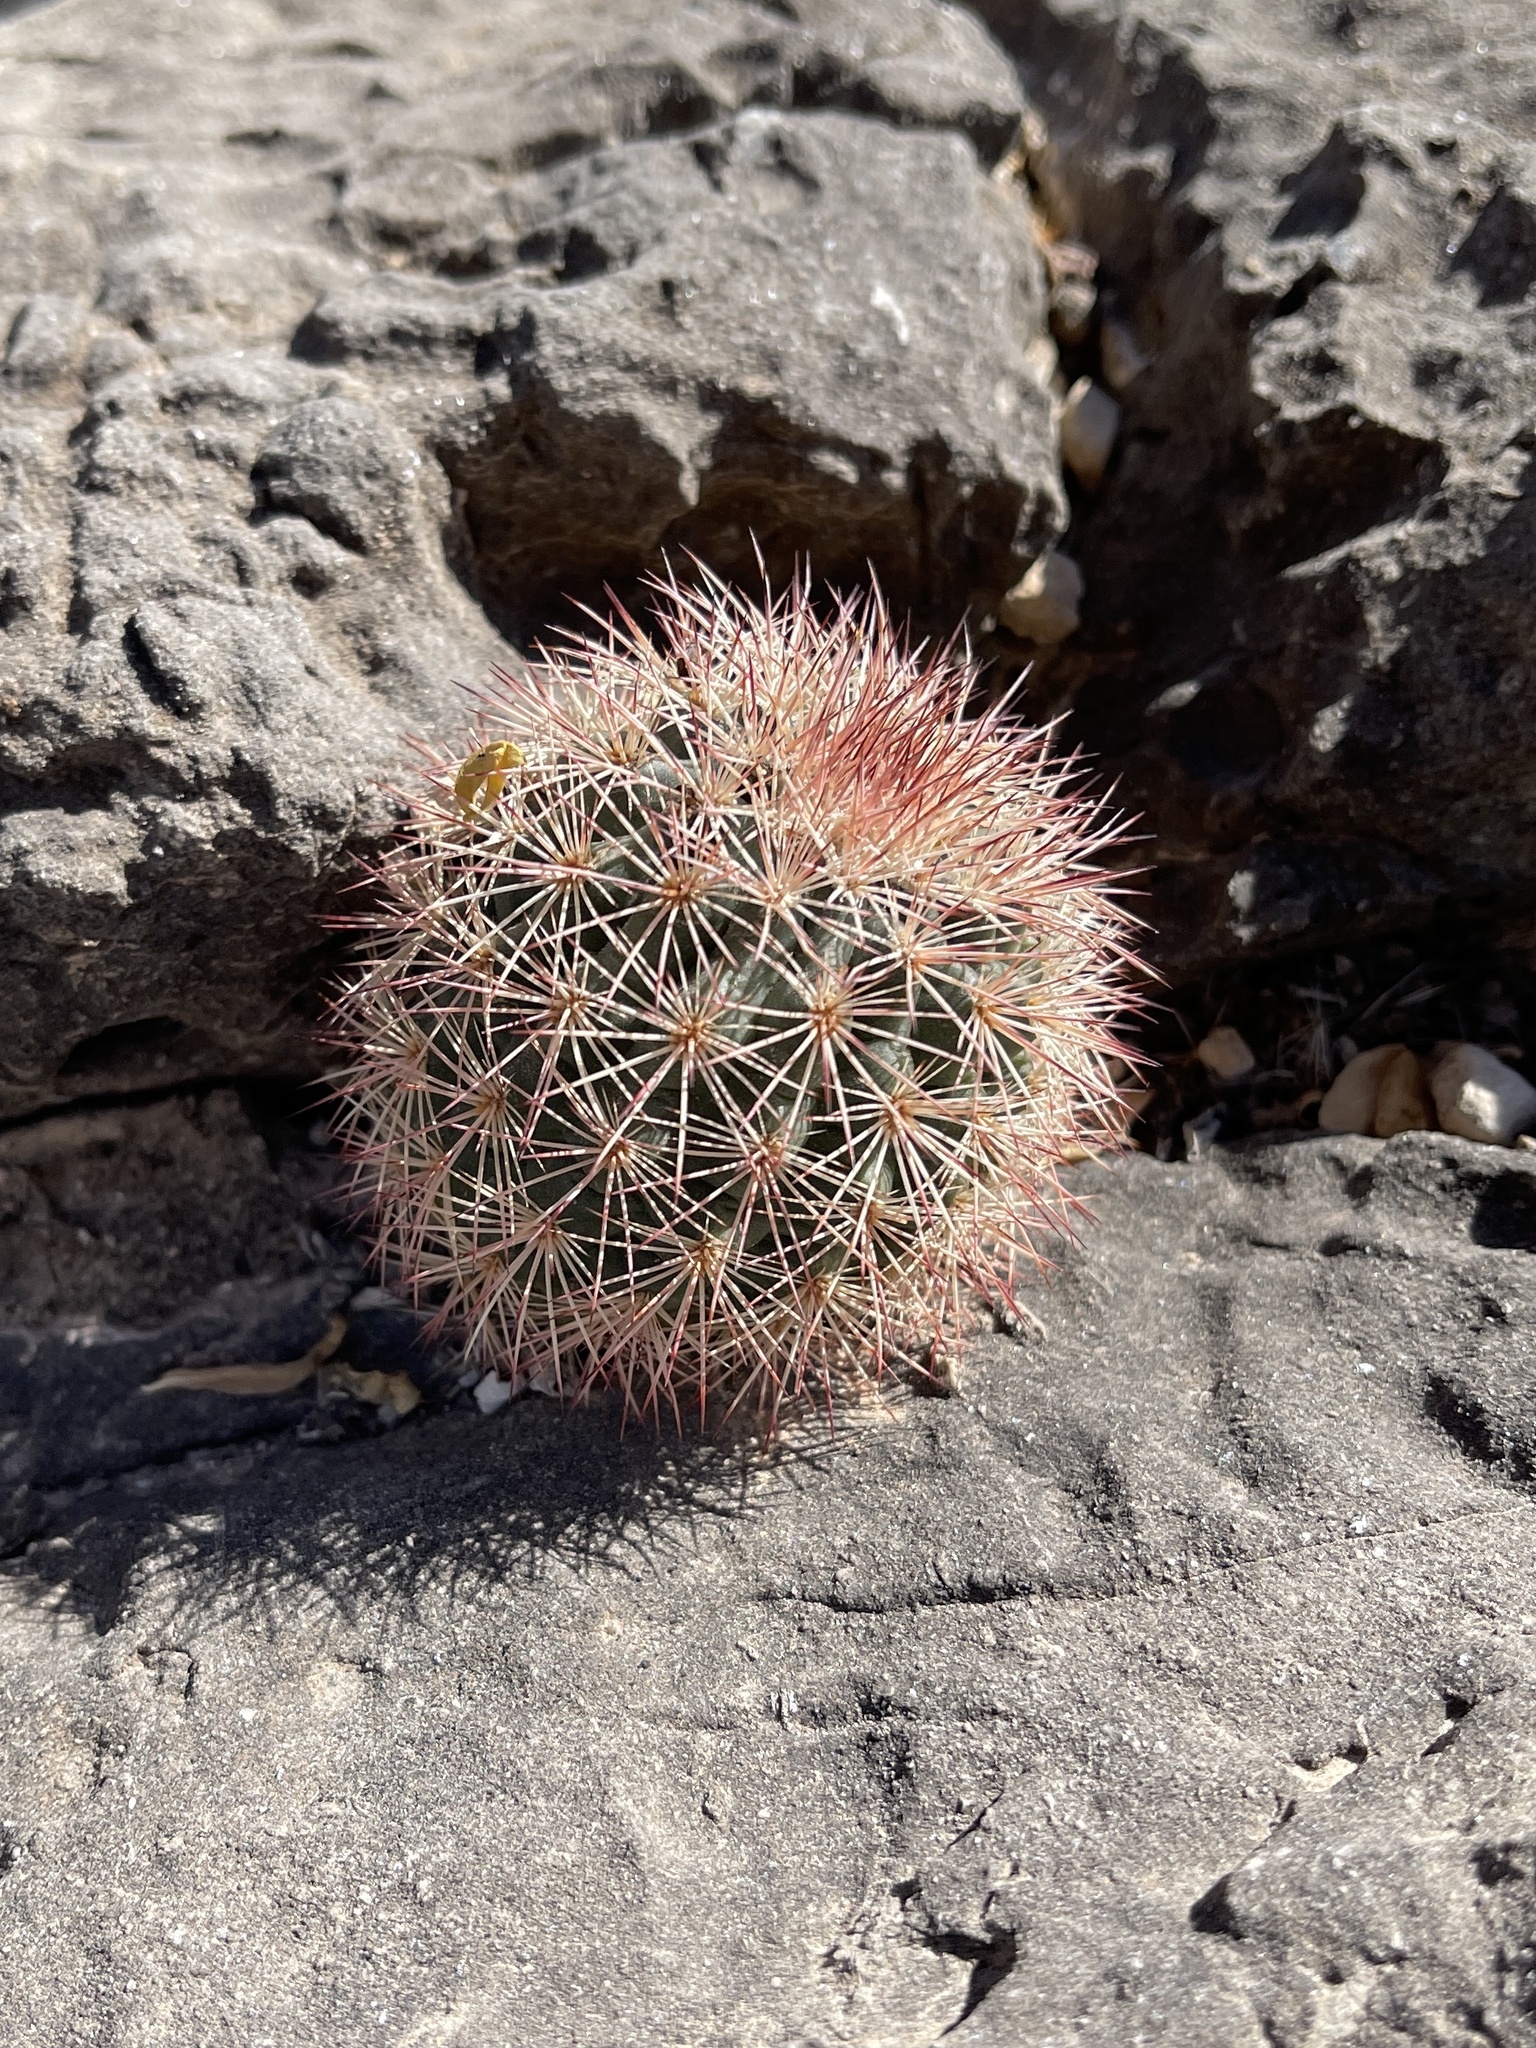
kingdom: Plantae
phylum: Tracheophyta
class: Magnoliopsida
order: Caryophyllales
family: Cactaceae
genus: Echinocereus
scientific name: Echinocereus dasyacanthus
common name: Spiny hedgehog cactus
